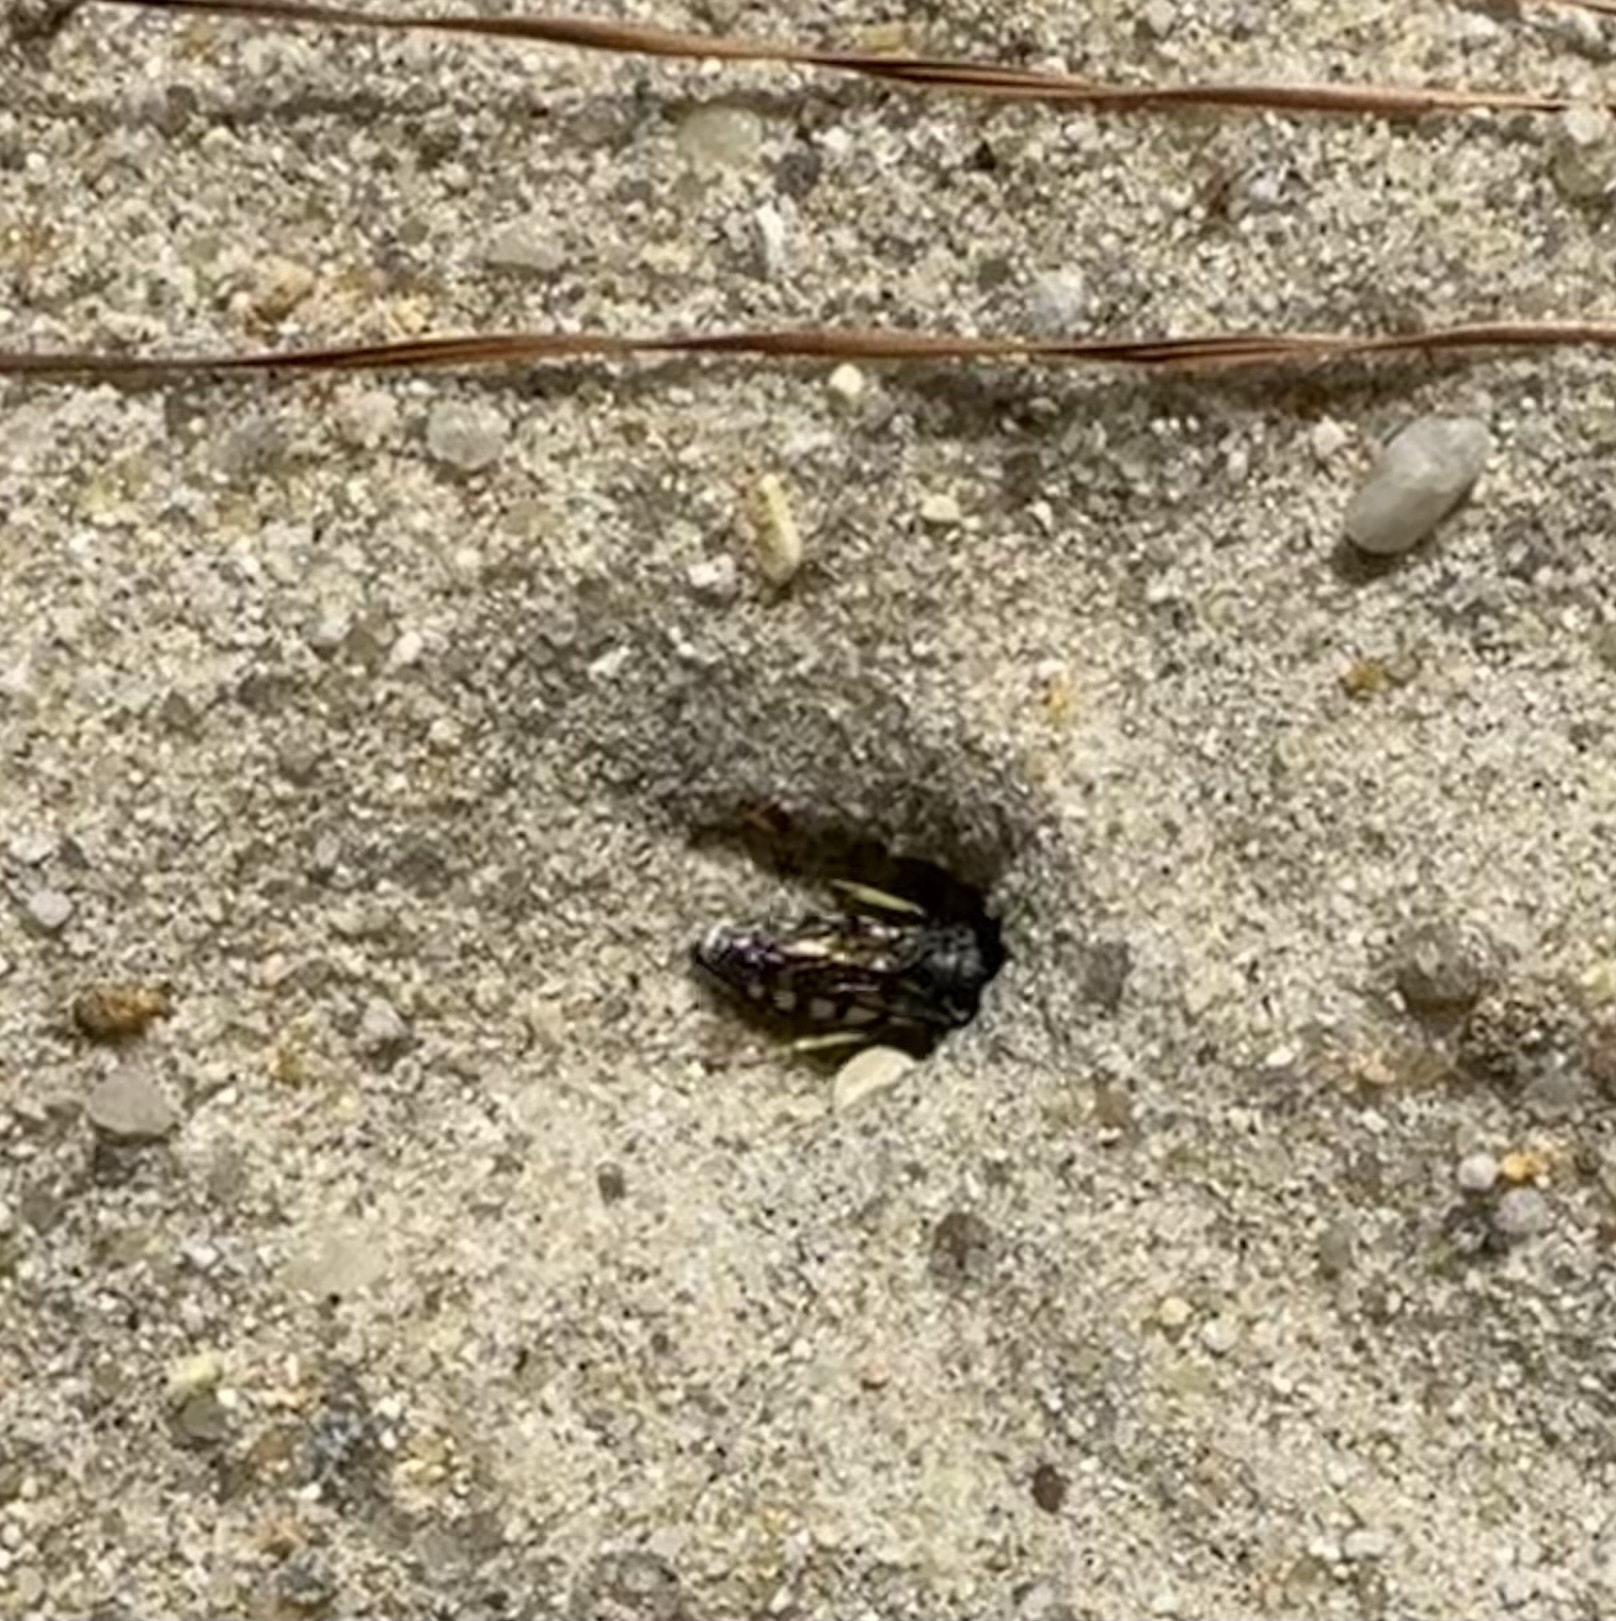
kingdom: Animalia
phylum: Arthropoda
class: Insecta
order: Hymenoptera
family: Crabronidae
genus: Bicyrtes
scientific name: Bicyrtes quadrifasciatus
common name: Four-banded stink bug hunter wasp
